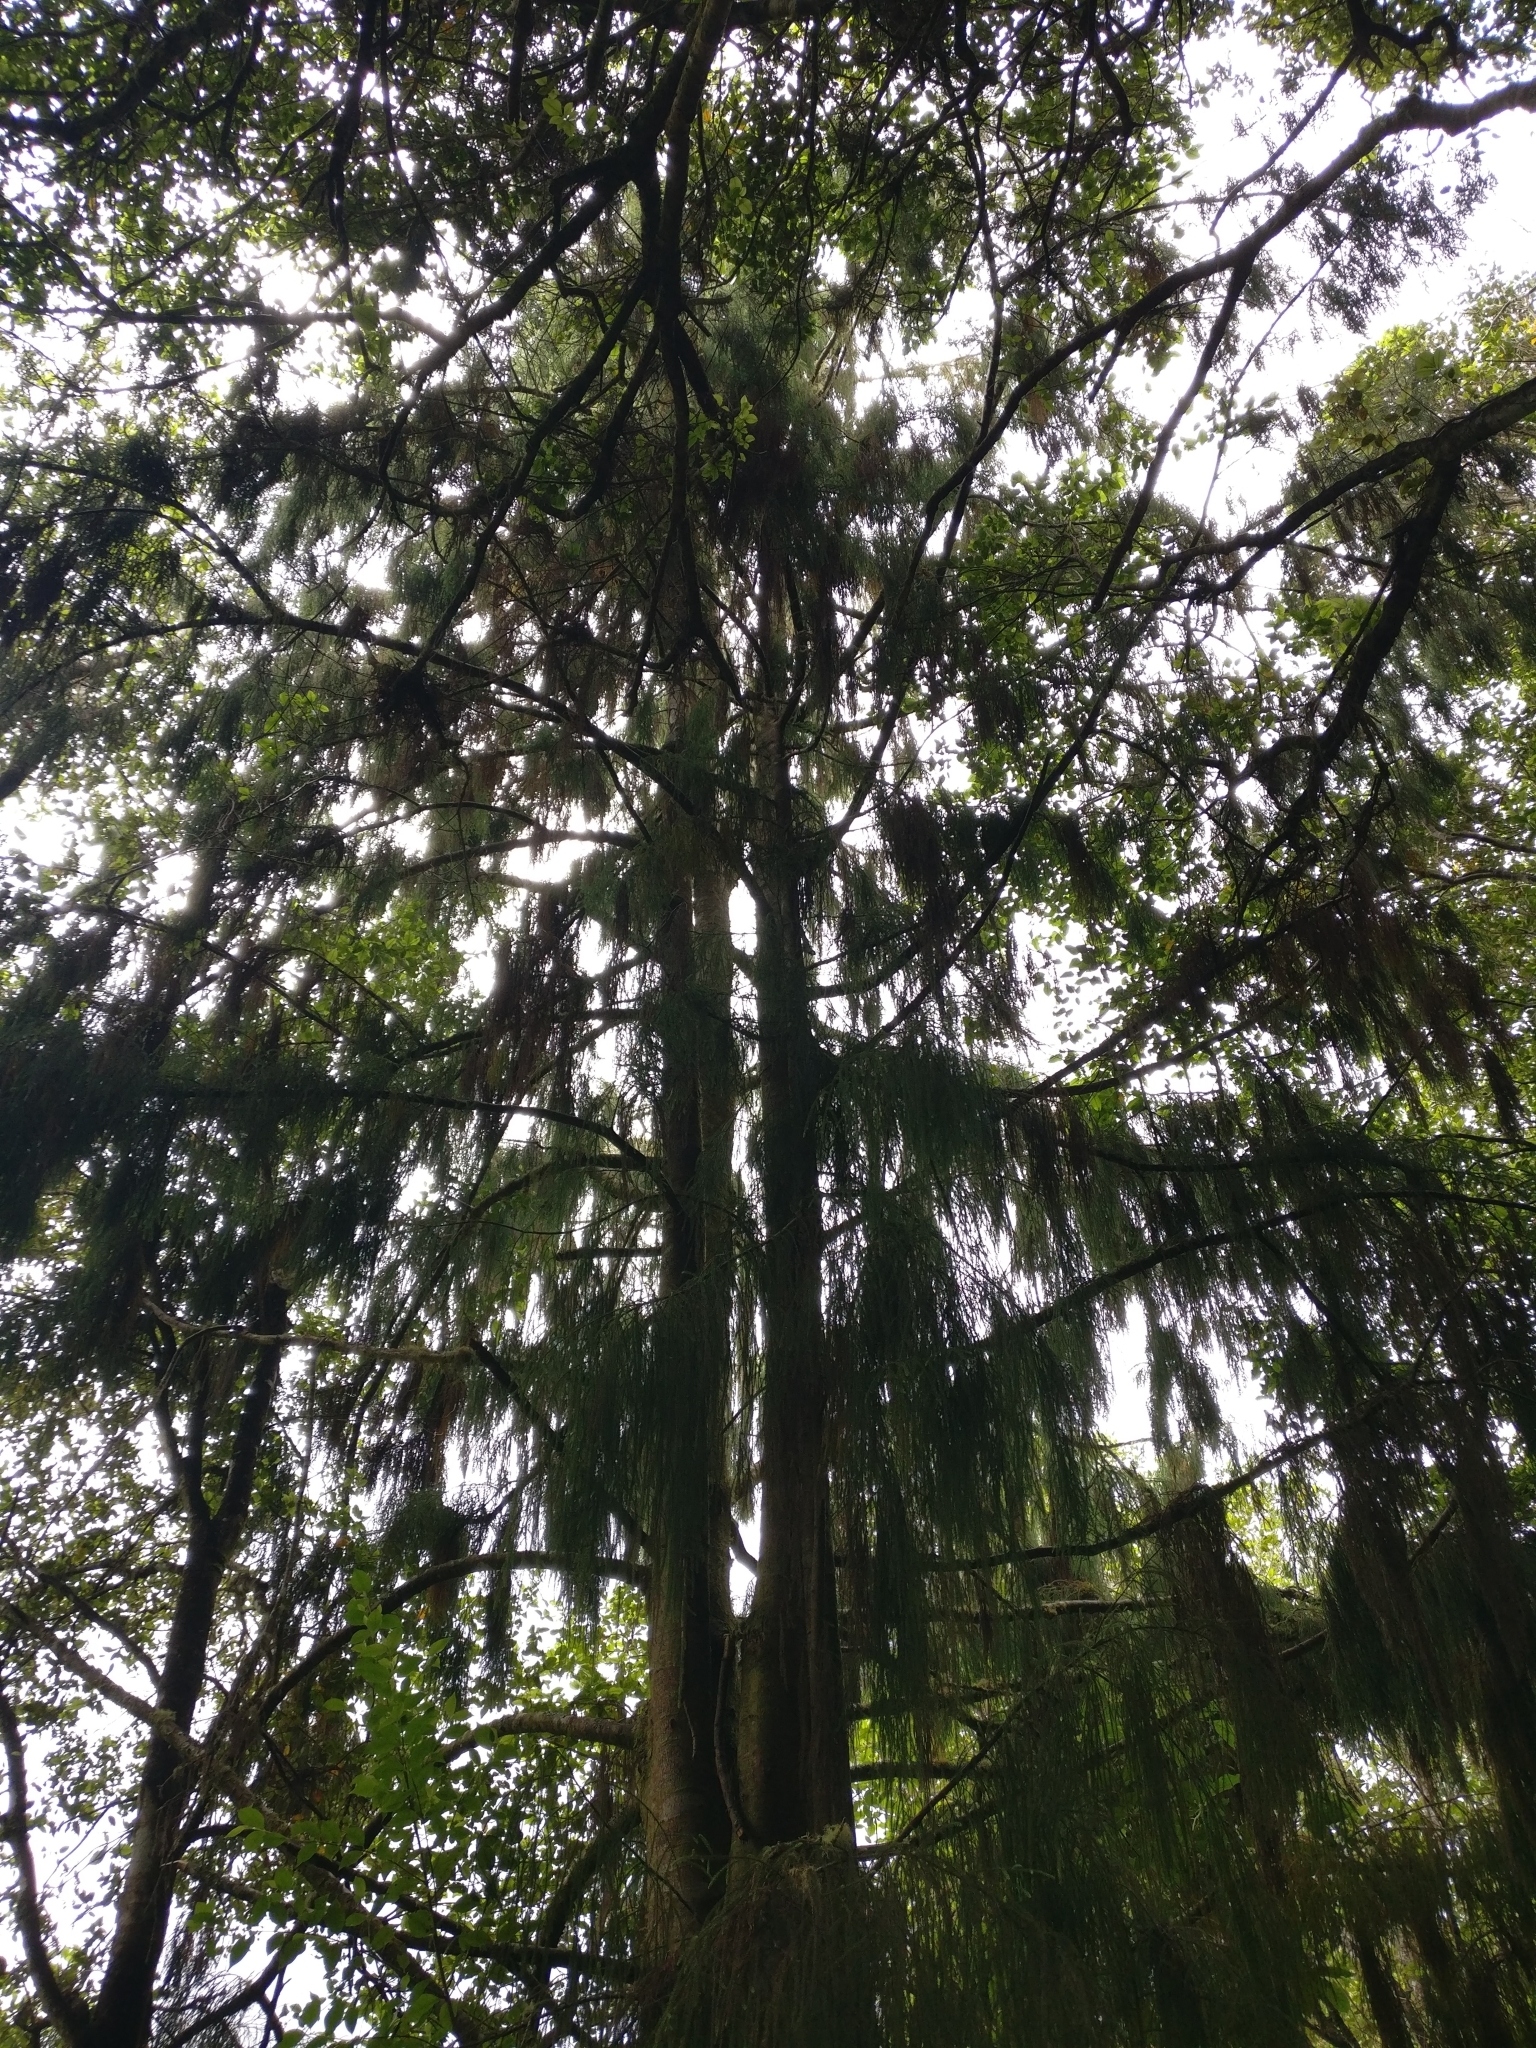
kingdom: Plantae
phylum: Tracheophyta
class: Pinopsida
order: Pinales
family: Podocarpaceae
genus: Dacrydium
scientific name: Dacrydium cupressinum
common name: Red pine
